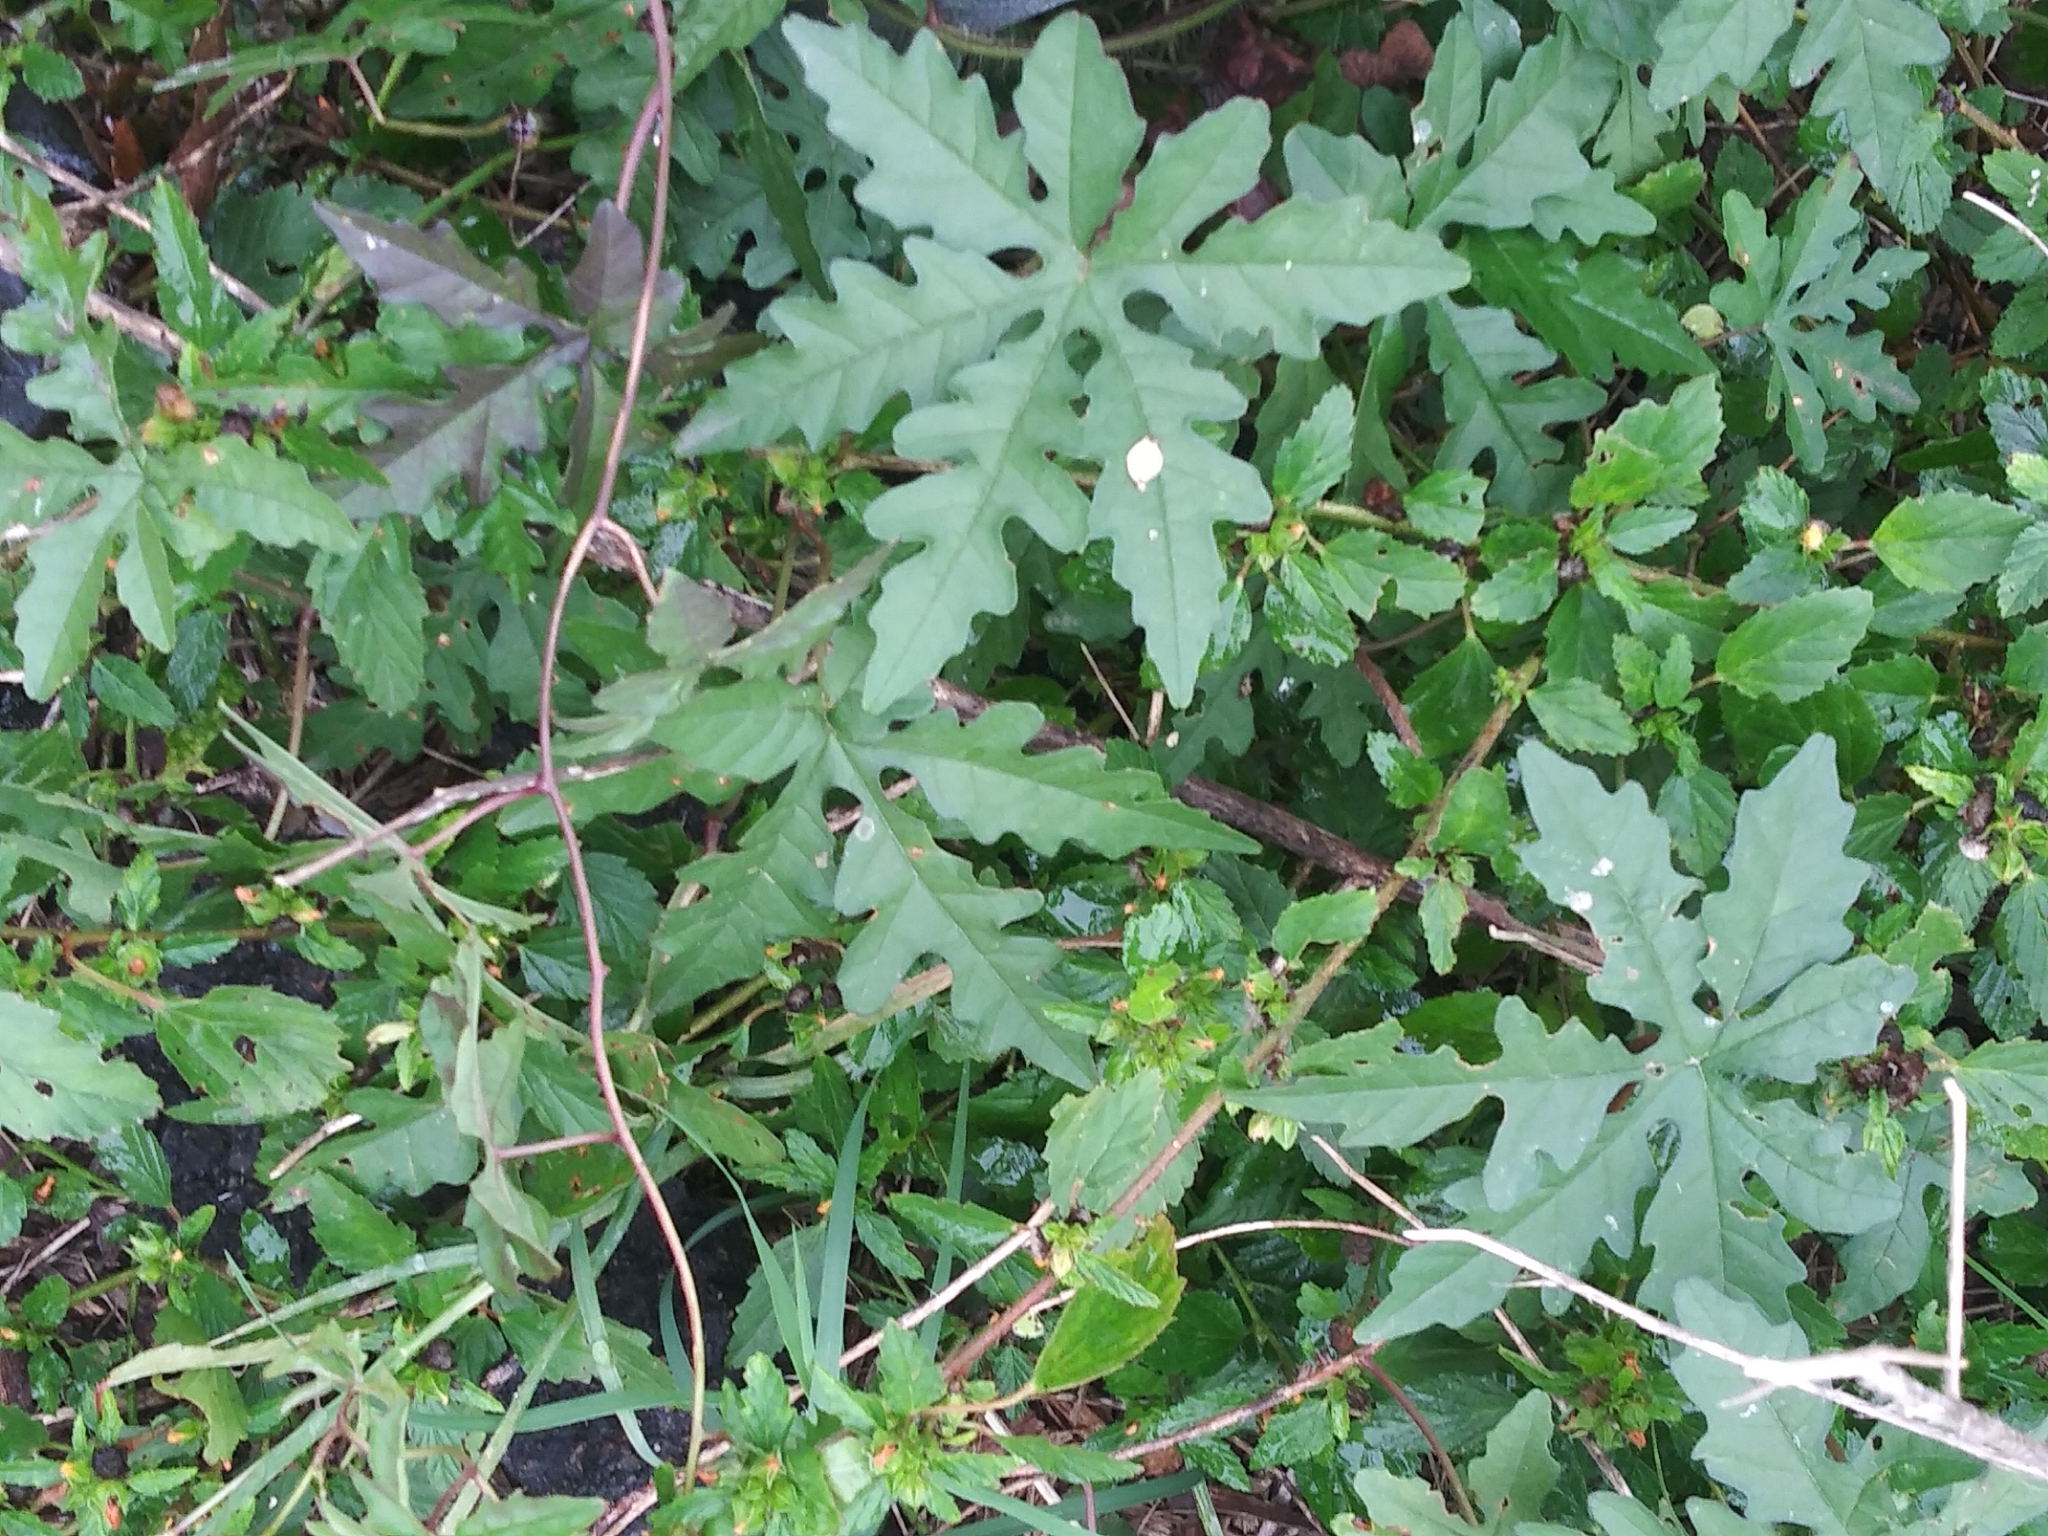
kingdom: Plantae
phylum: Tracheophyta
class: Magnoliopsida
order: Solanales
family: Convolvulaceae
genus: Distimake
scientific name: Distimake dissectus
